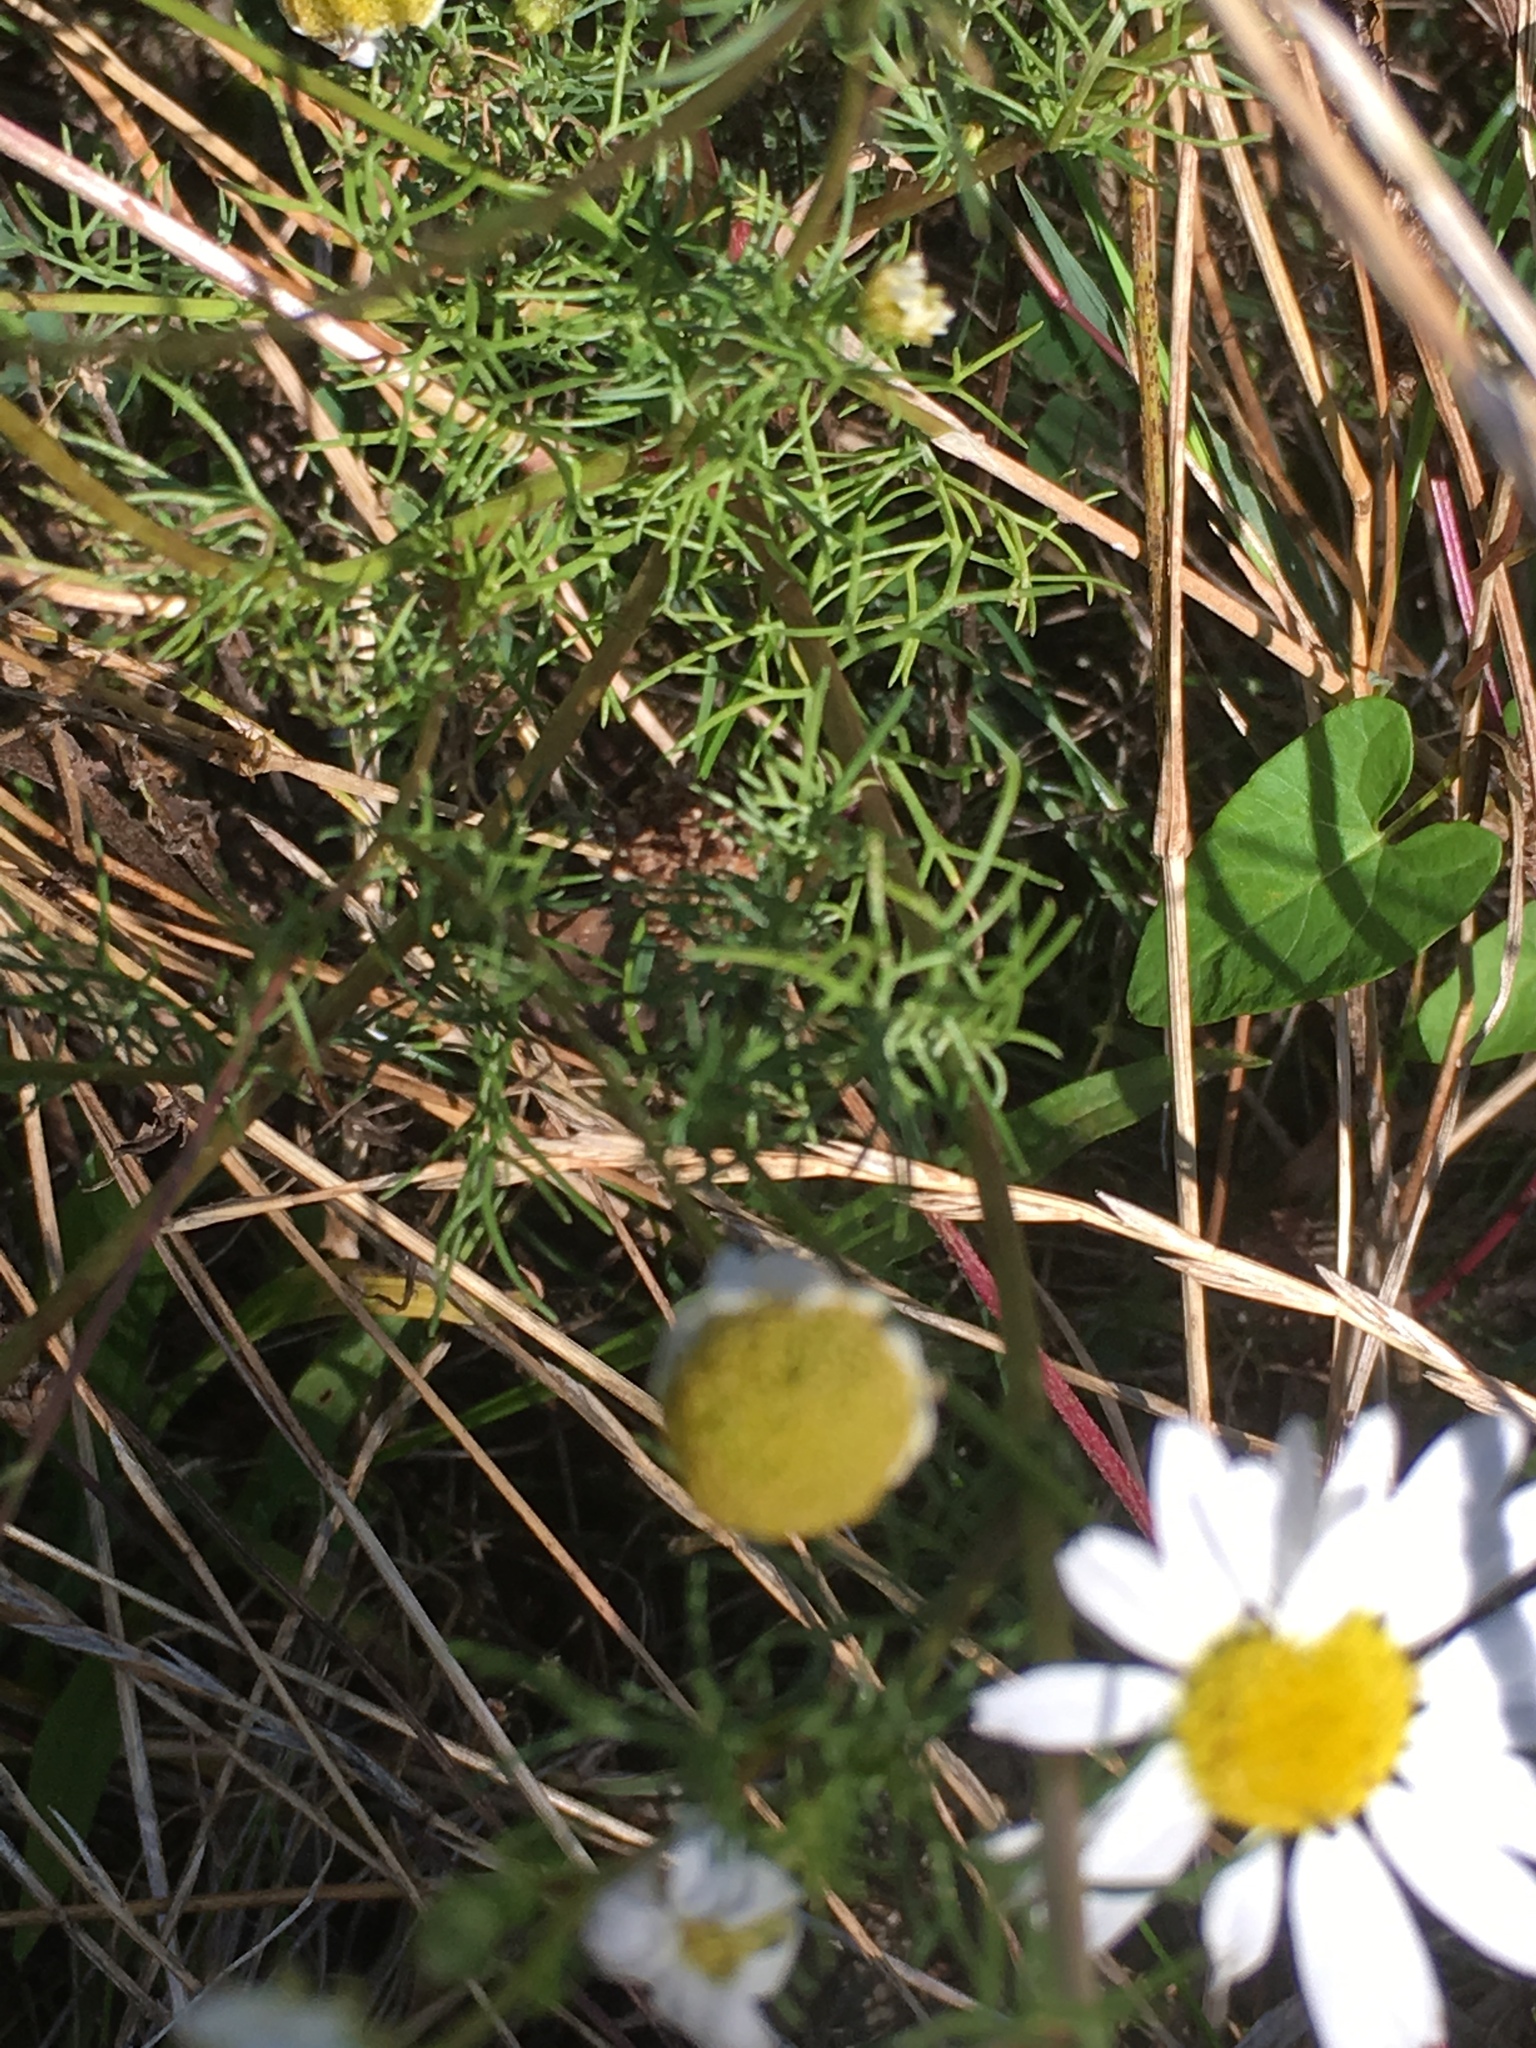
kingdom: Plantae
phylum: Tracheophyta
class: Magnoliopsida
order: Asterales
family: Asteraceae
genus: Leucanthemum
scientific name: Leucanthemum vulgare
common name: Oxeye daisy
